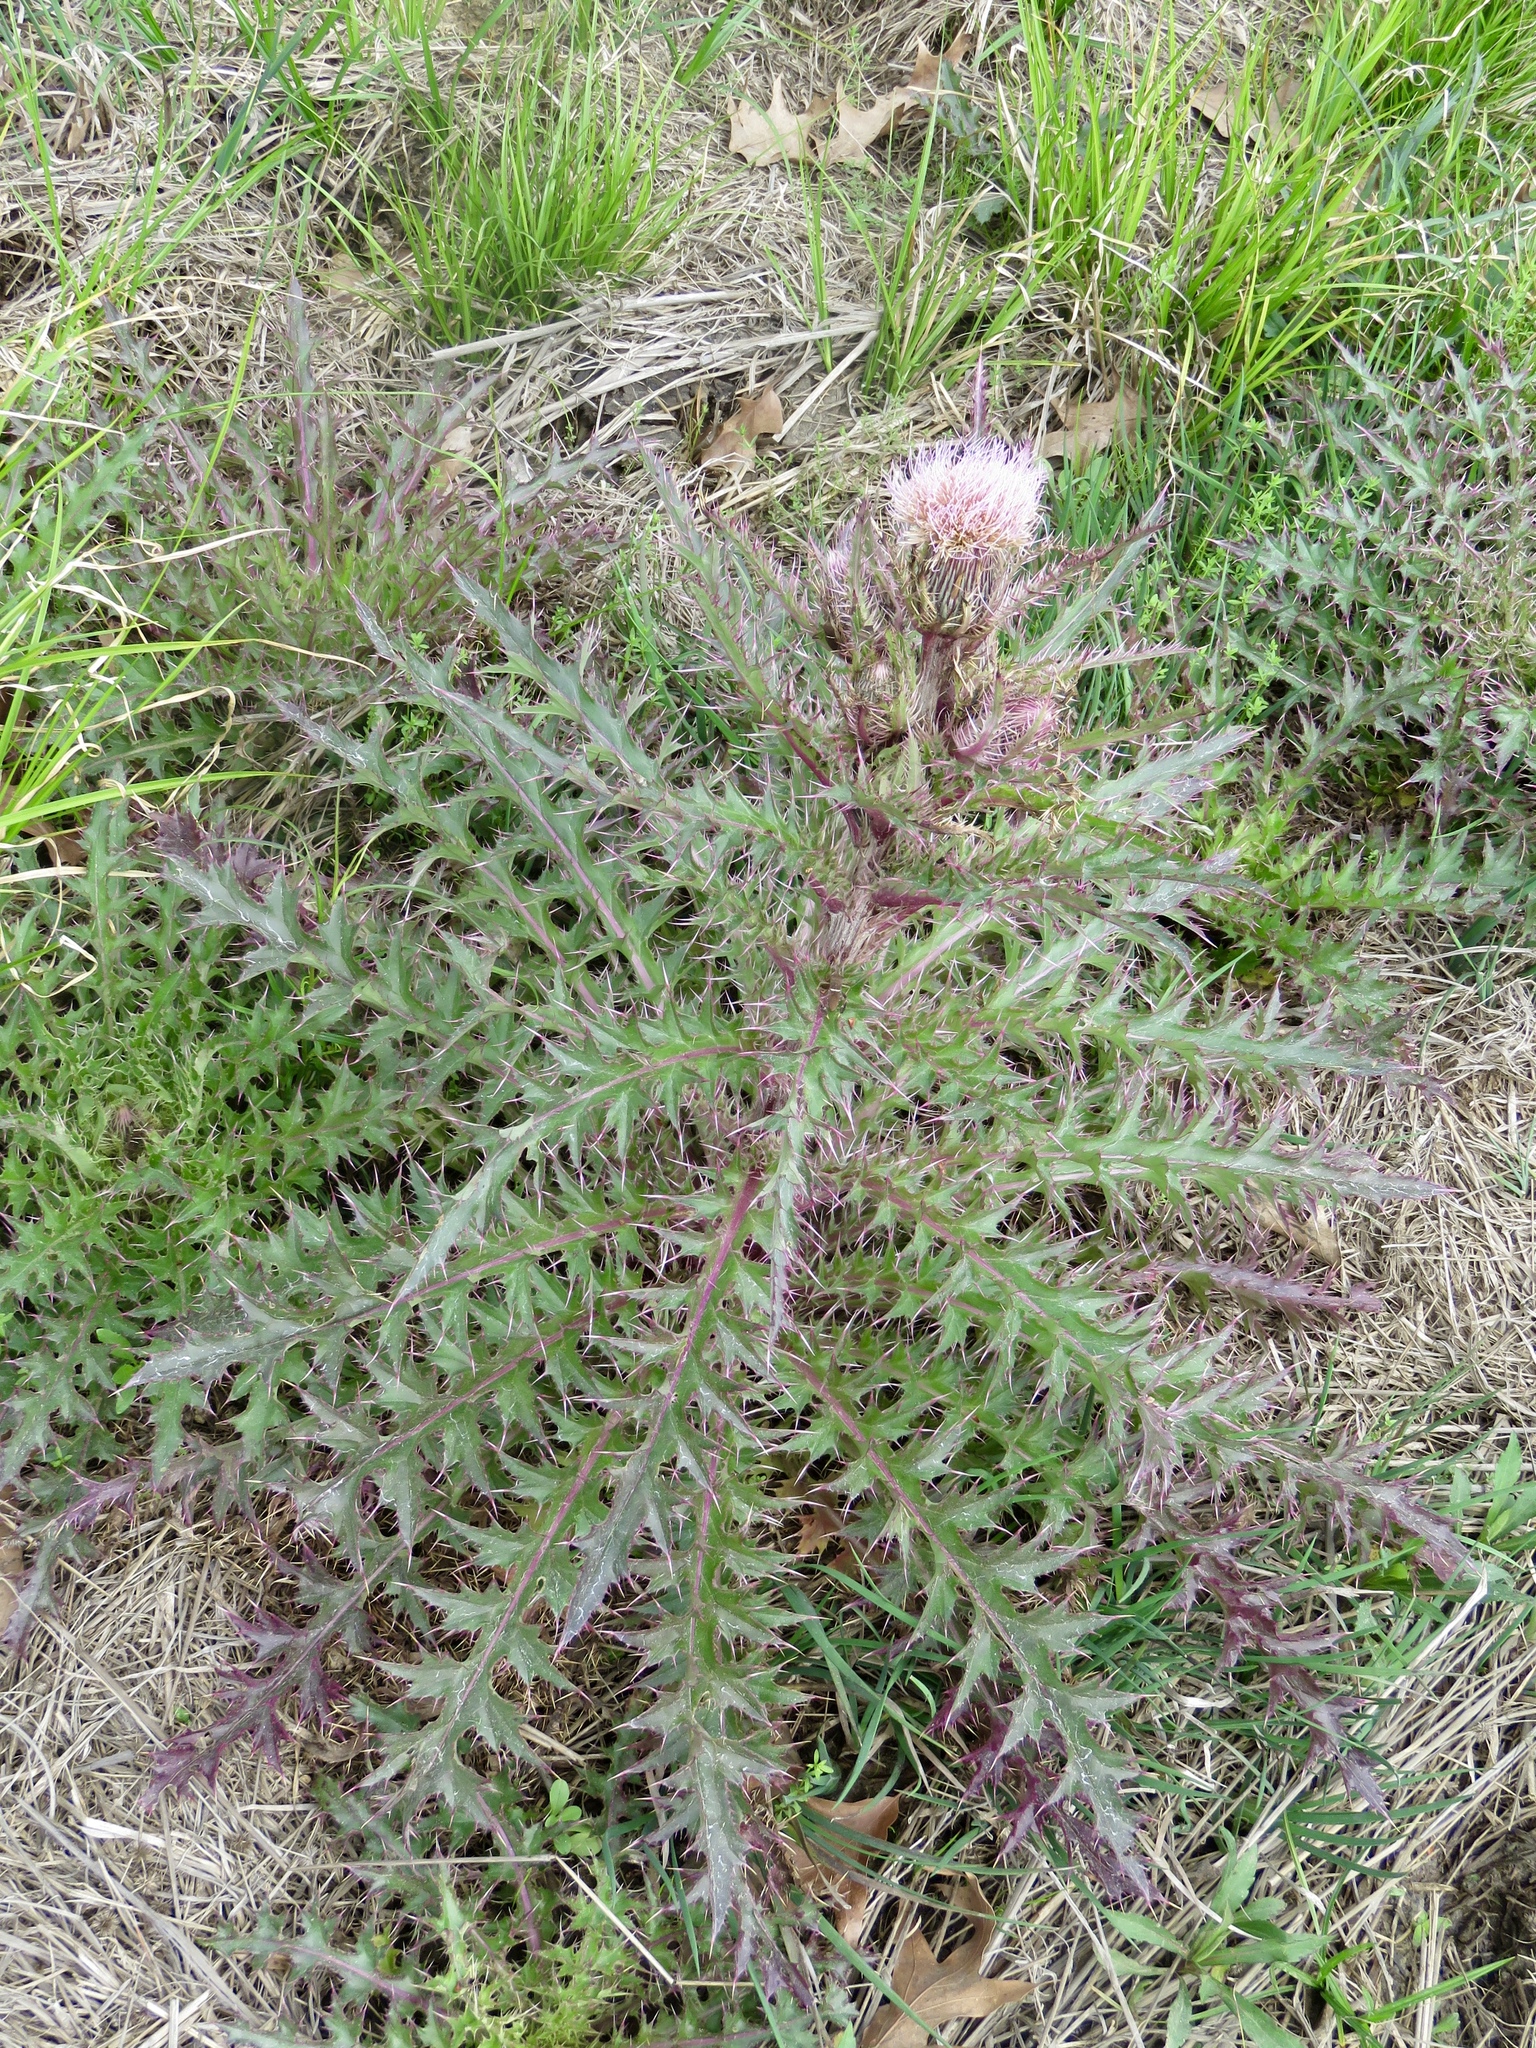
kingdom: Plantae
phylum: Tracheophyta
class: Magnoliopsida
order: Asterales
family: Asteraceae
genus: Cirsium
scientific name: Cirsium horridulum
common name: Bristly thistle
